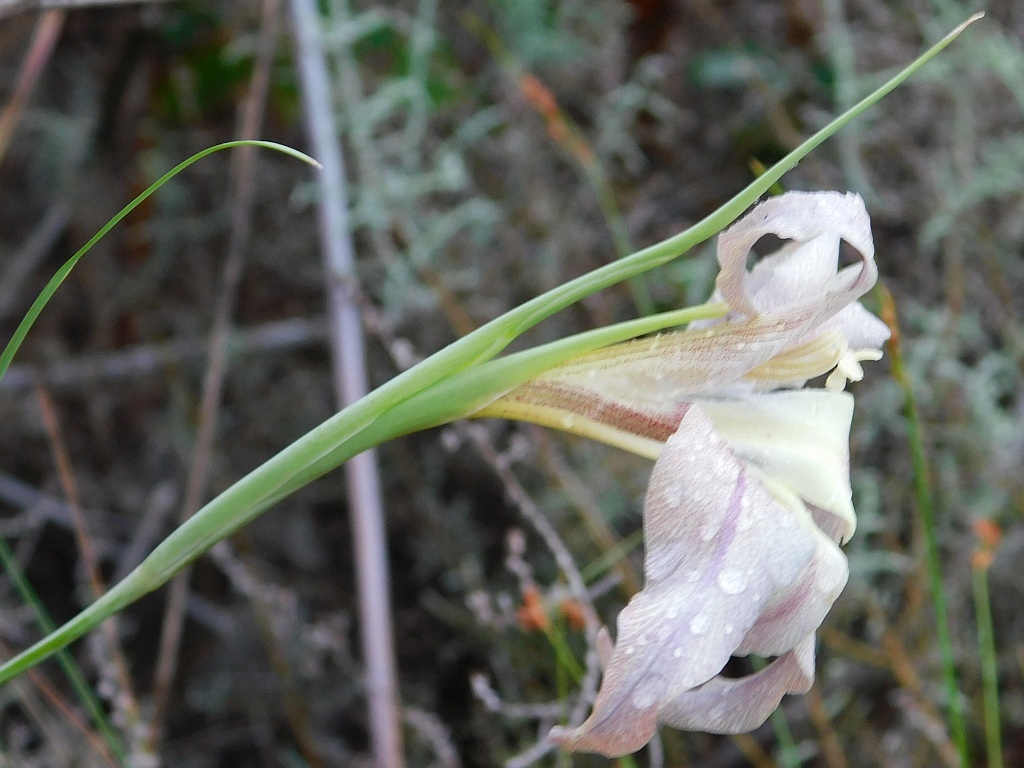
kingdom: Plantae
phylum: Tracheophyta
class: Liliopsida
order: Asparagales
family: Iridaceae
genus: Gladiolus
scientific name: Gladiolus liliaceus
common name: Large brown afrikaner
